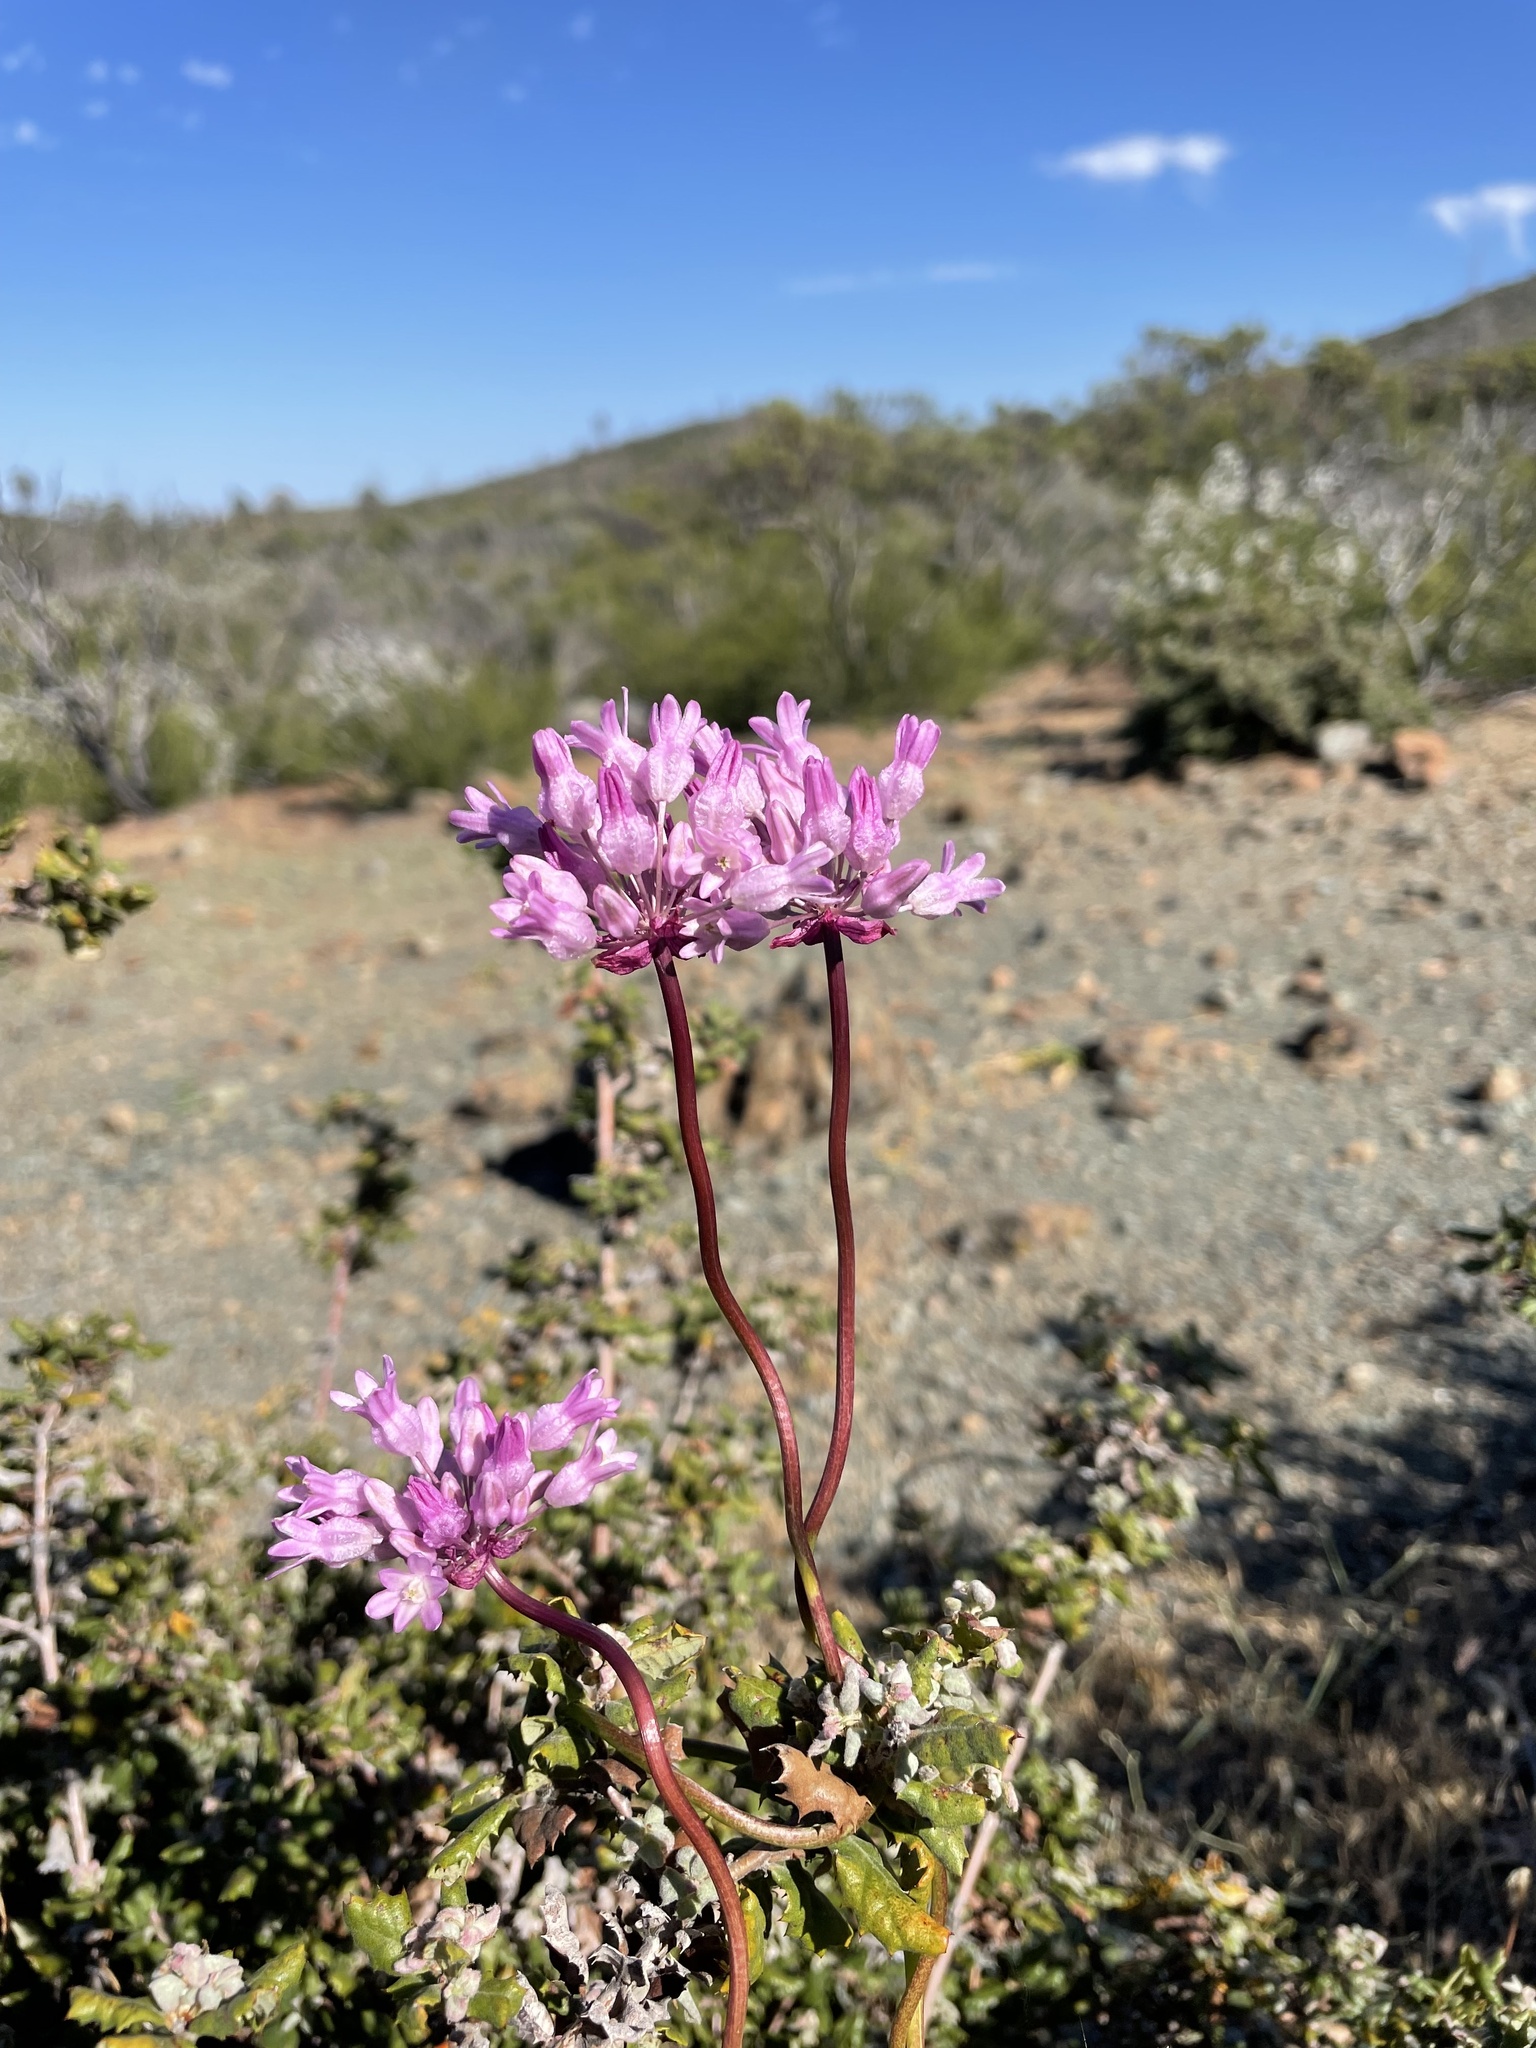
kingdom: Plantae
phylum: Tracheophyta
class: Liliopsida
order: Asparagales
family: Asparagaceae
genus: Dichelostemma
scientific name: Dichelostemma volubile
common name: Trining brodiaea
